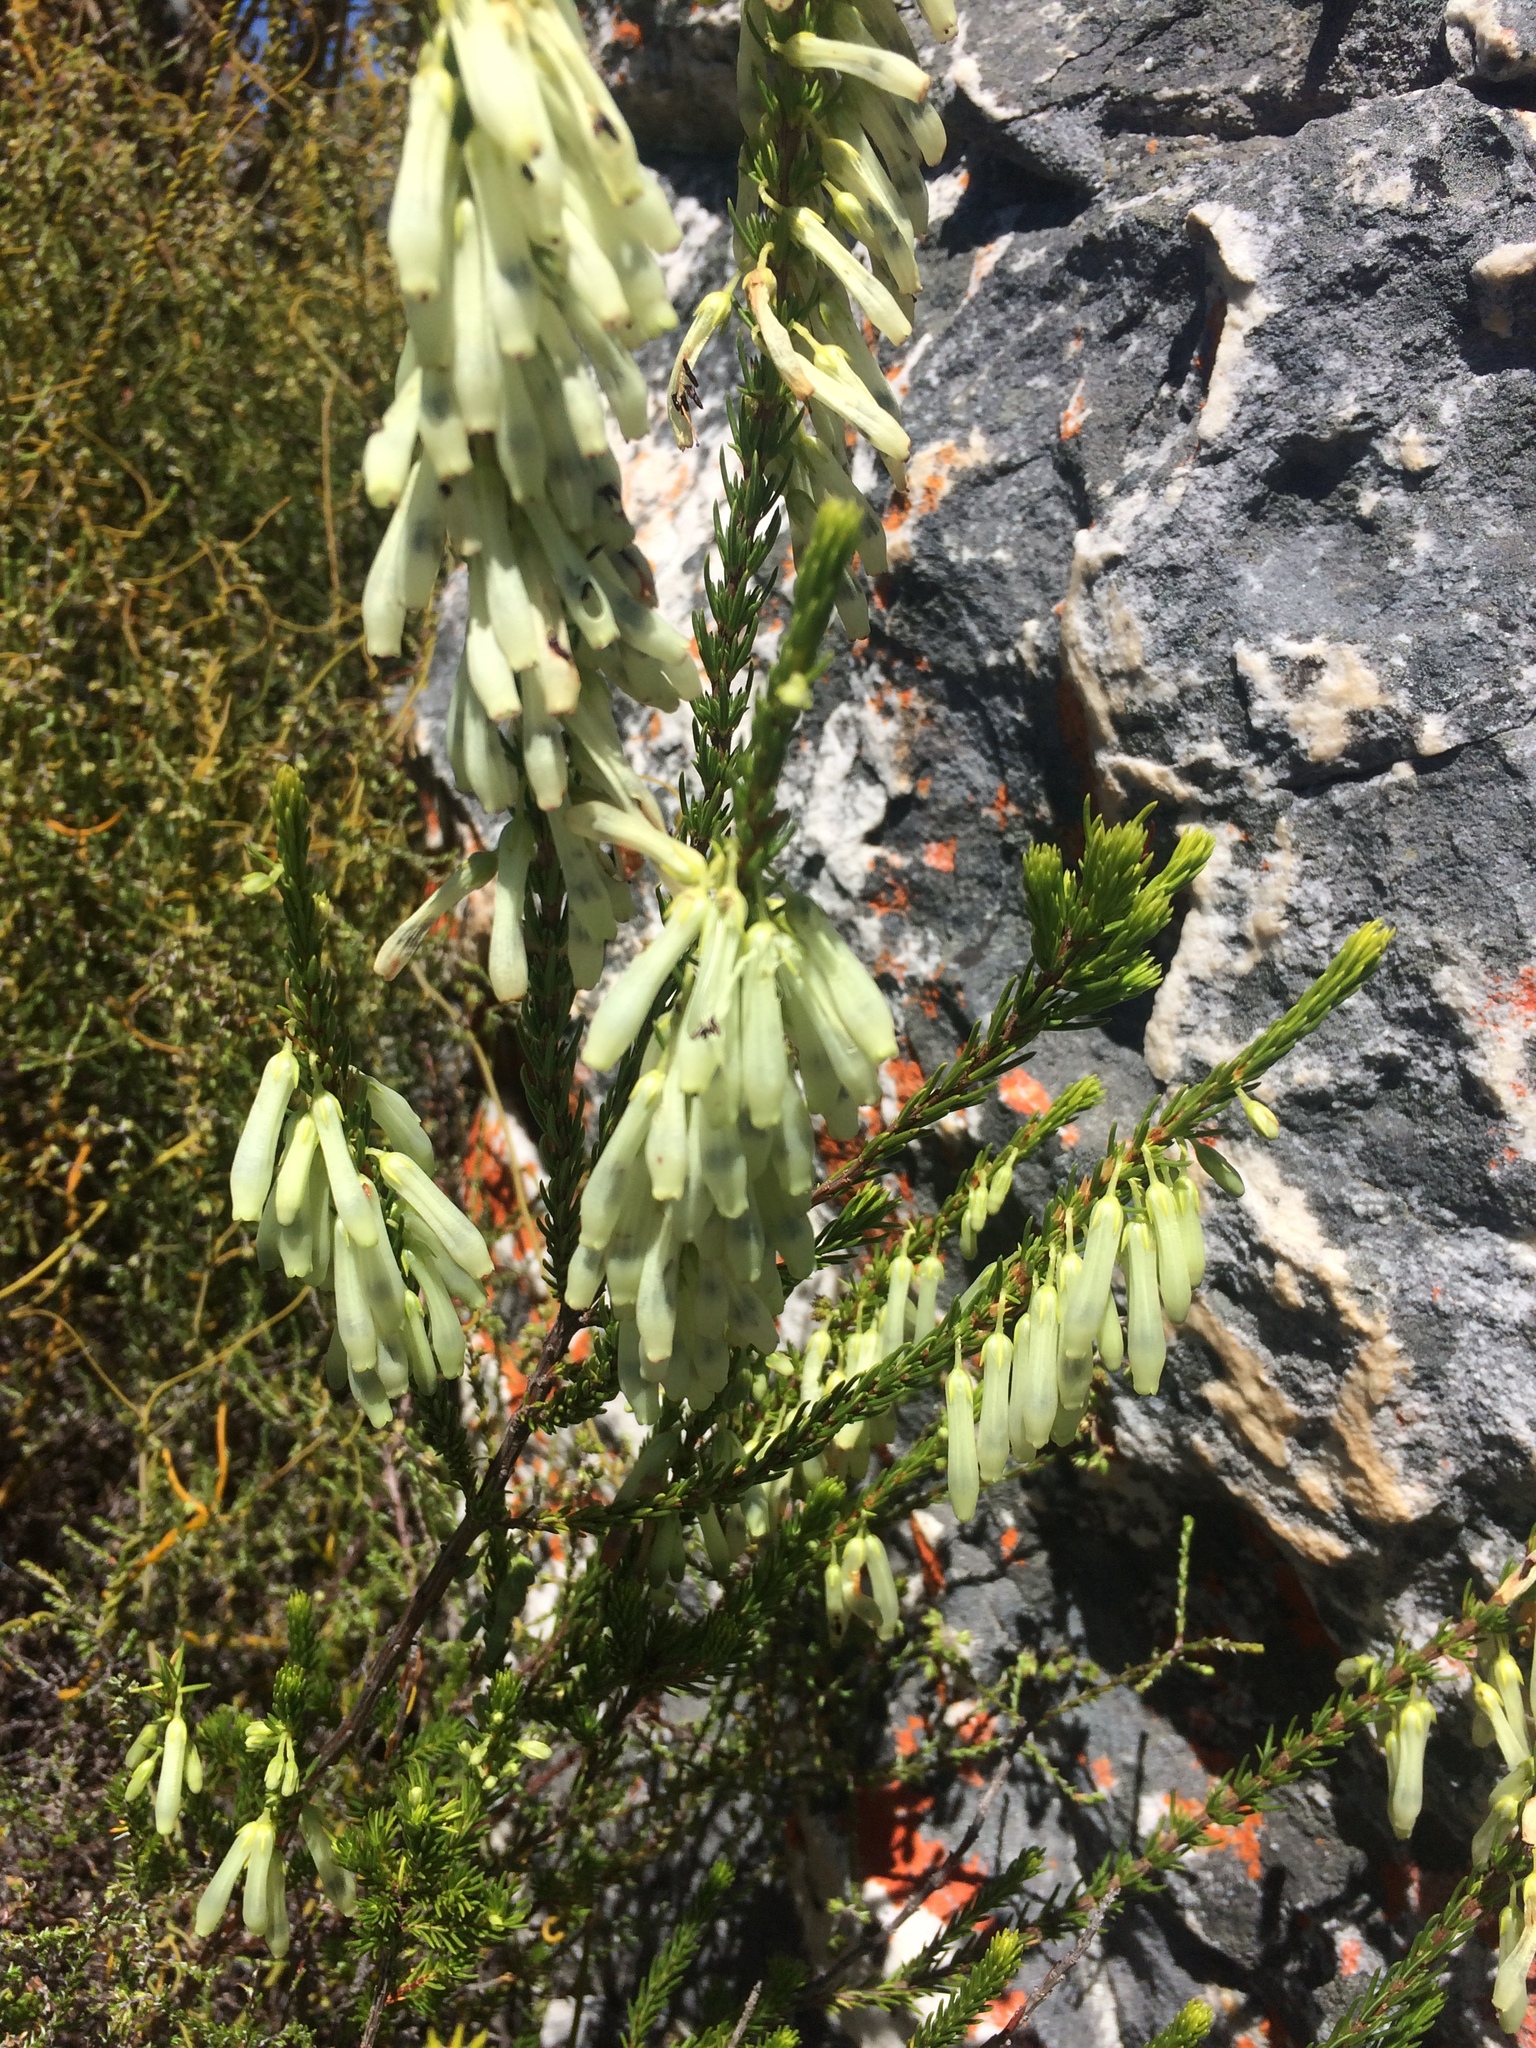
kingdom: Plantae
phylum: Tracheophyta
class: Magnoliopsida
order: Ericales
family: Ericaceae
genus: Erica
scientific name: Erica mammosa
